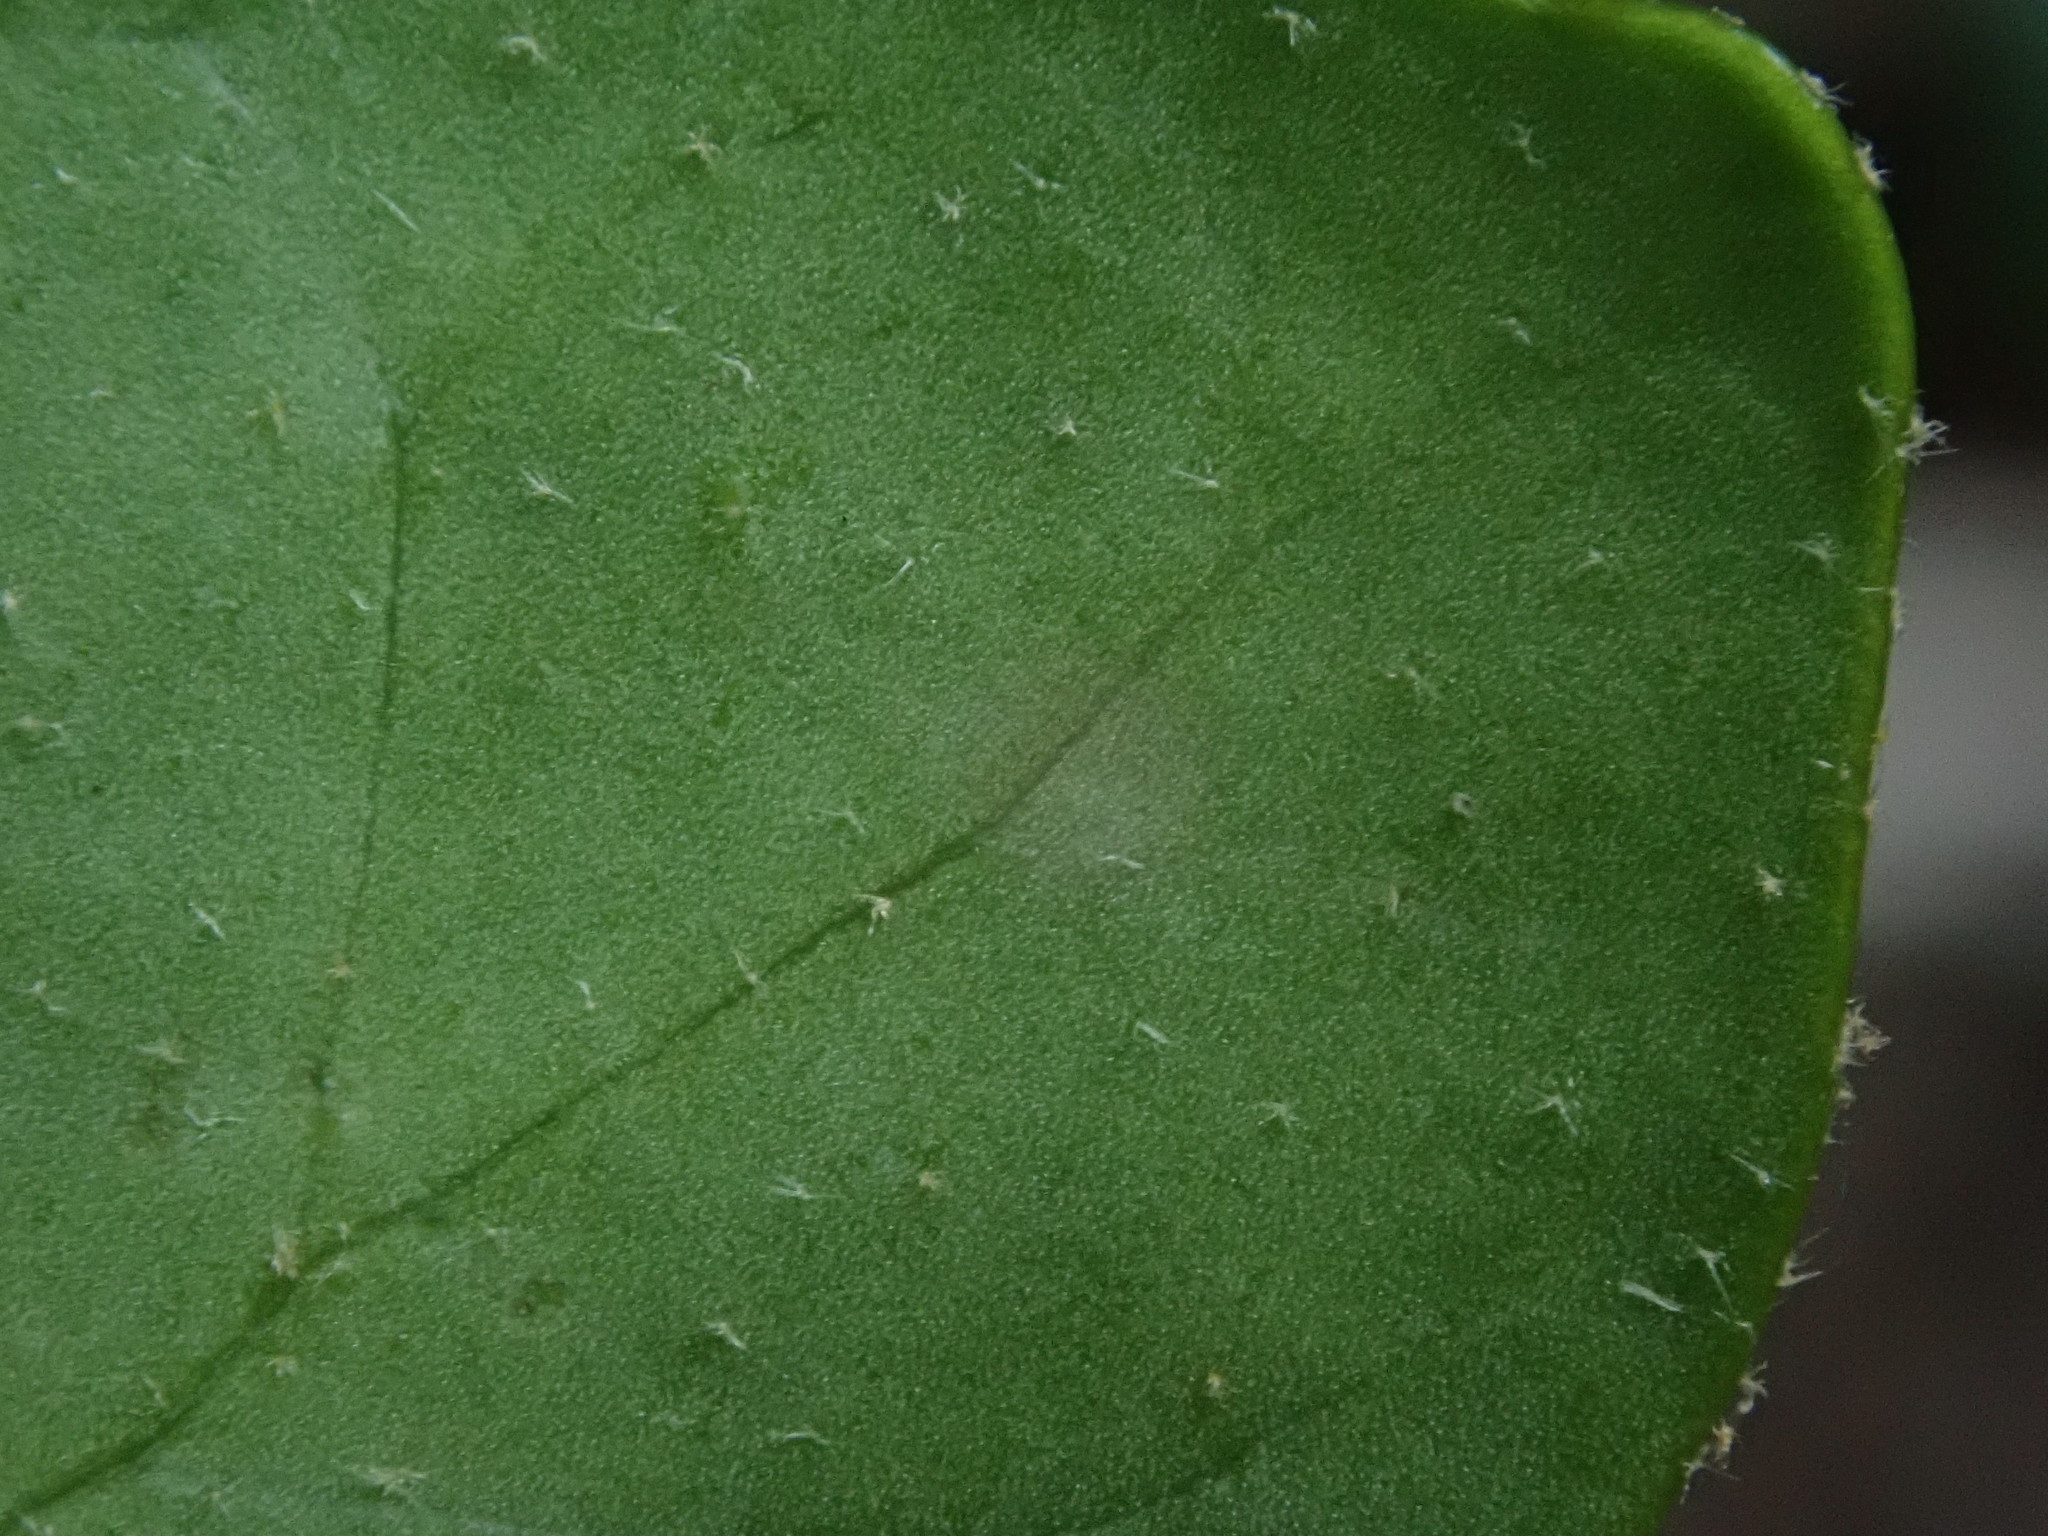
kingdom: Plantae
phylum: Tracheophyta
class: Magnoliopsida
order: Apiales
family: Araliaceae
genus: Hedera
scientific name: Hedera helix
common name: Ivy
